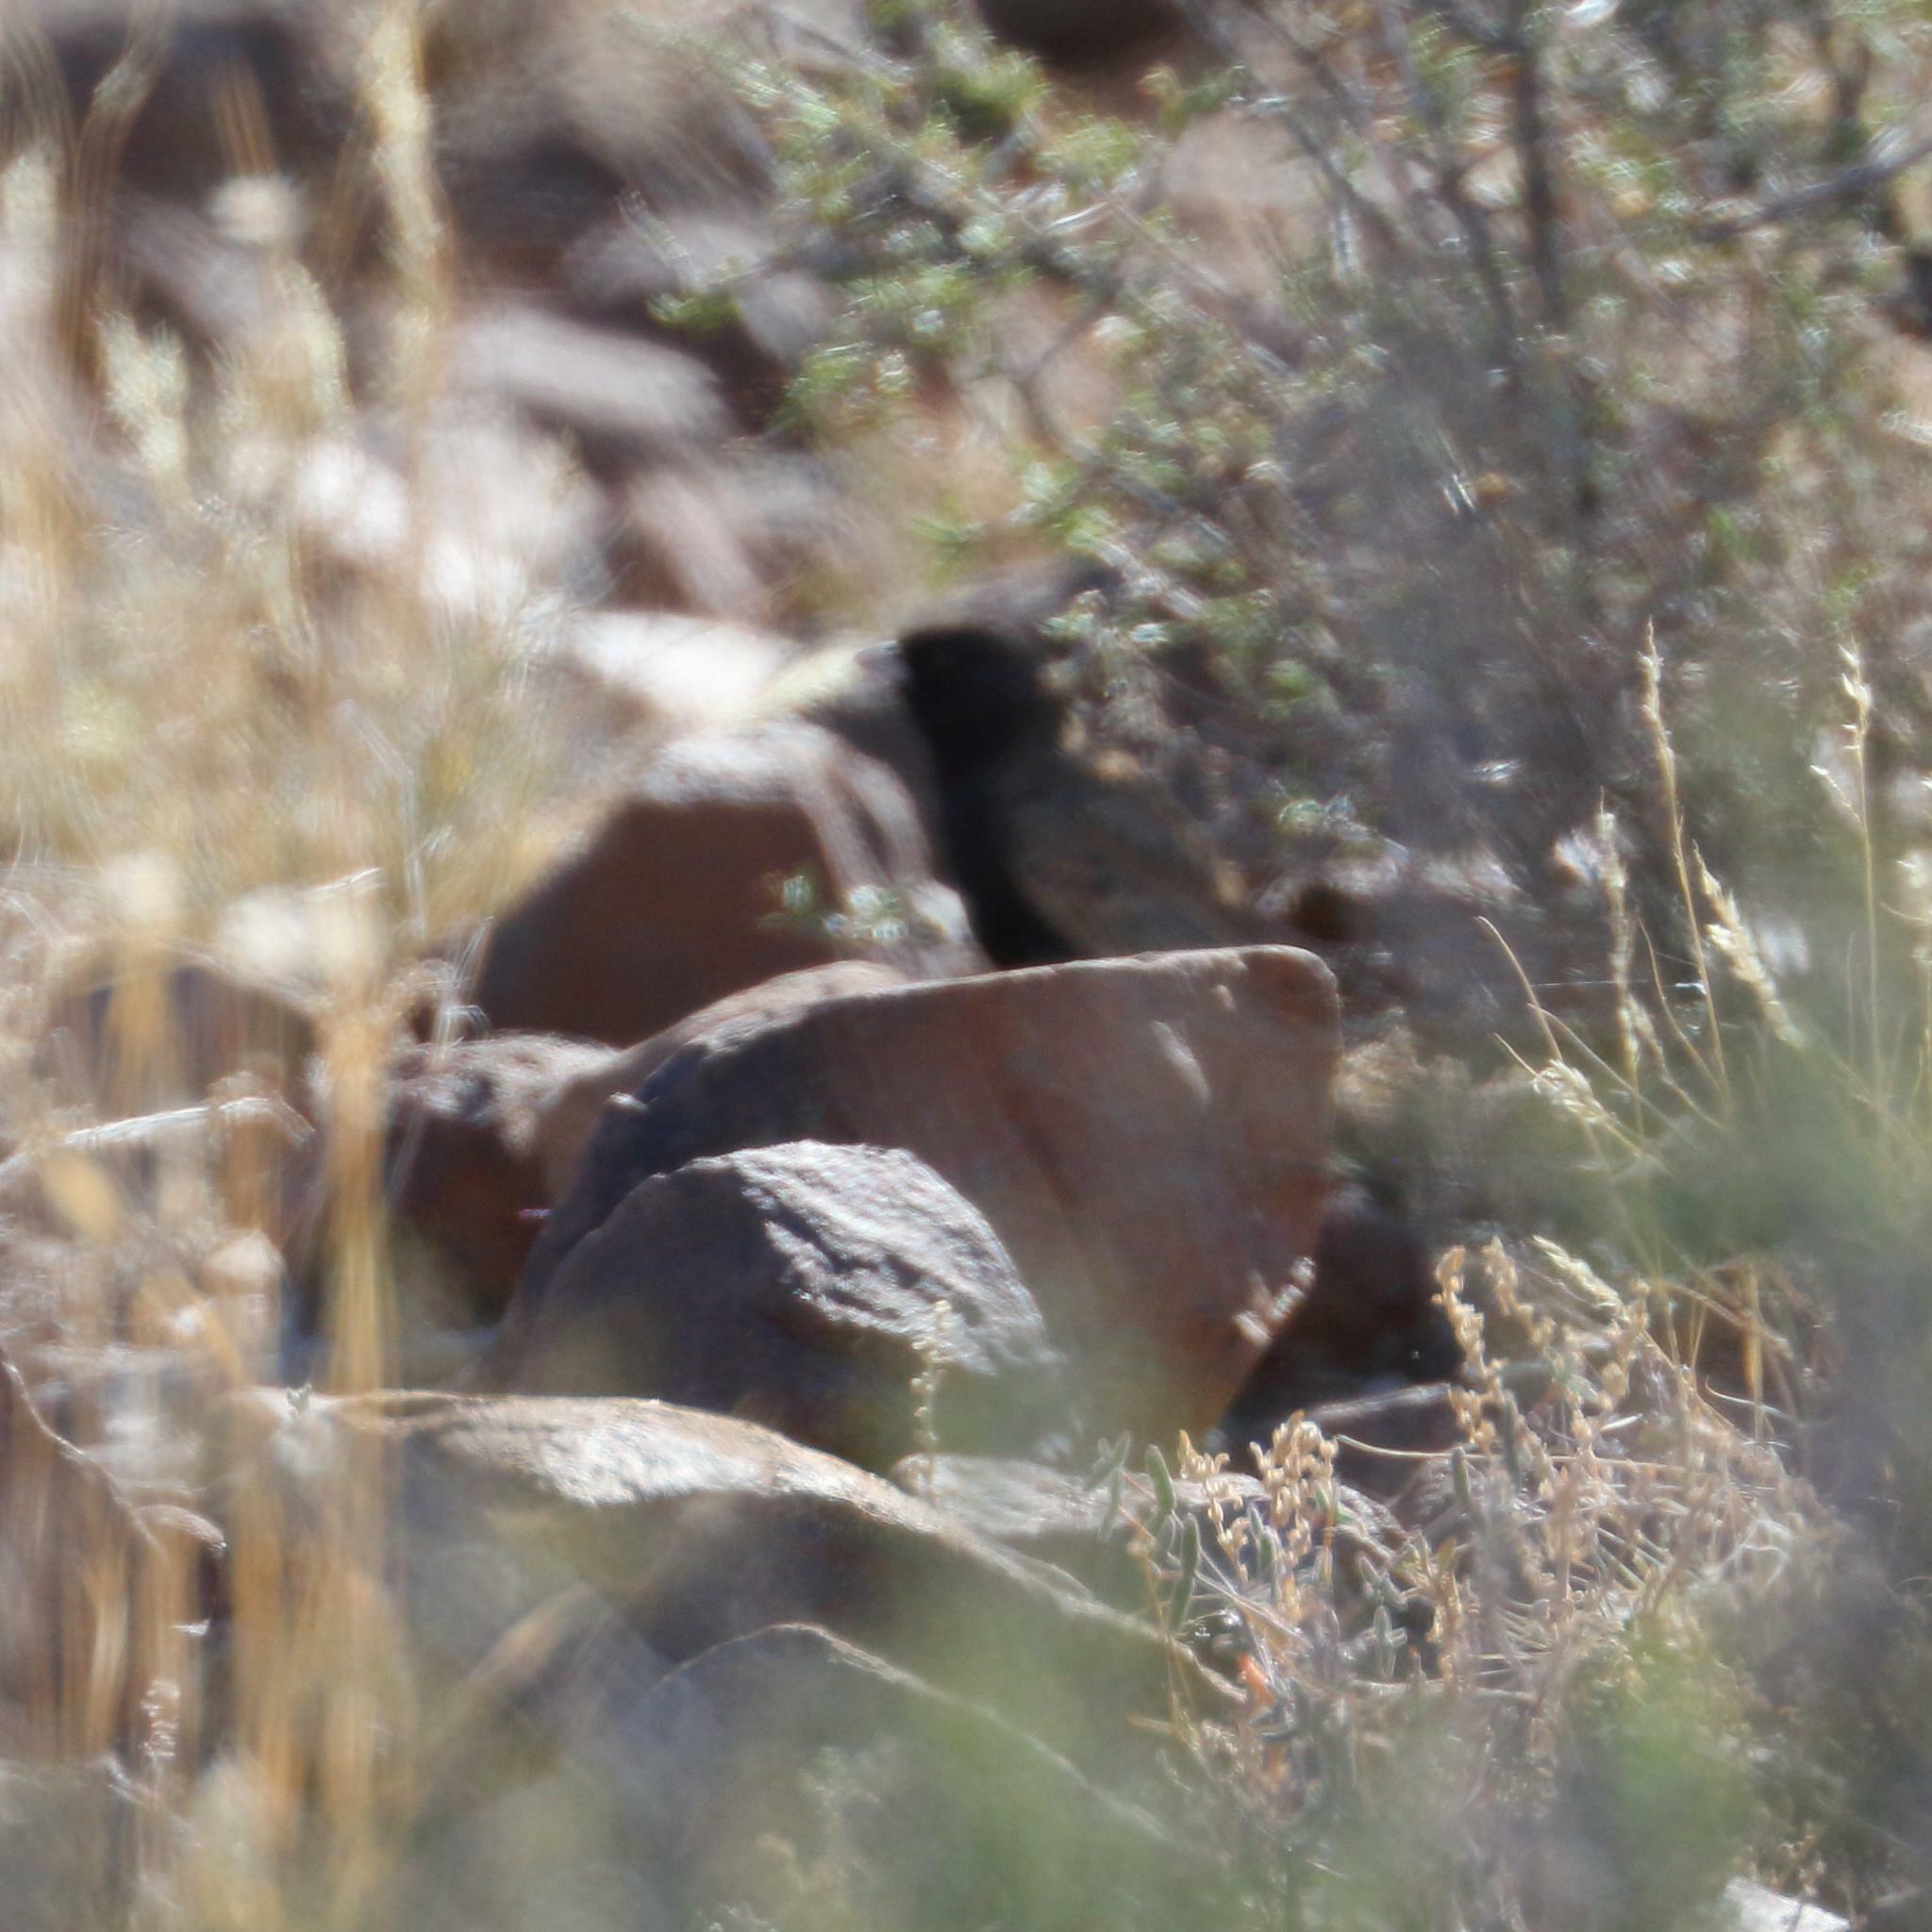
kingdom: Animalia
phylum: Chordata
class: Aves
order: Passeriformes
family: Alaudidae
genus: Eremopterix
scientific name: Eremopterix australis
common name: Black-eared sparrow-lark
